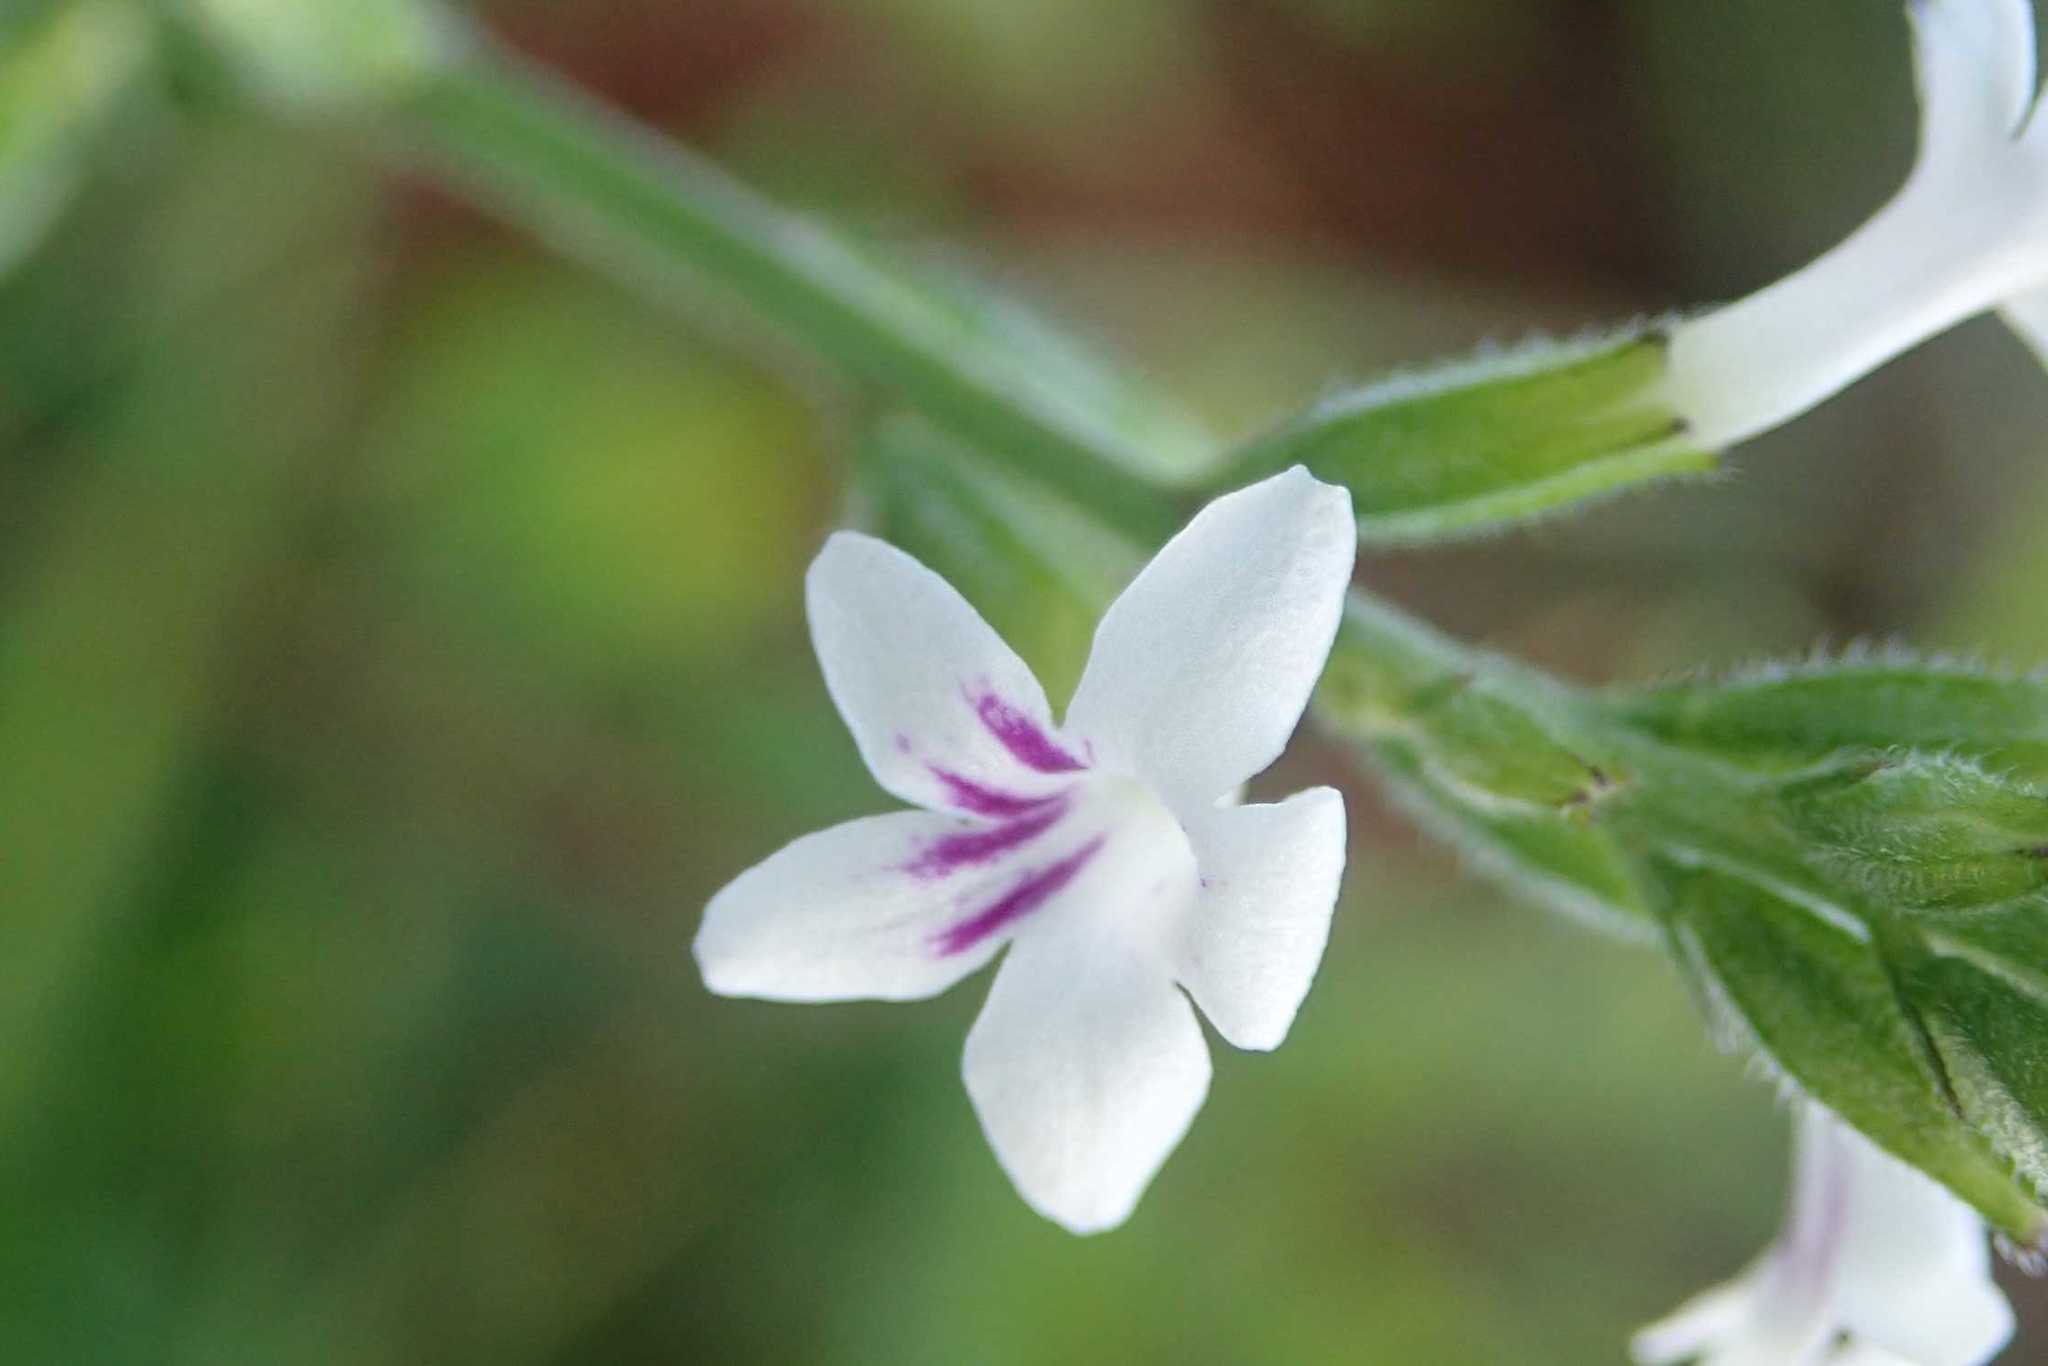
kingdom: Plantae
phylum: Tracheophyta
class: Magnoliopsida
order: Lamiales
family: Verbenaceae
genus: Priva
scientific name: Priva cordifolia
